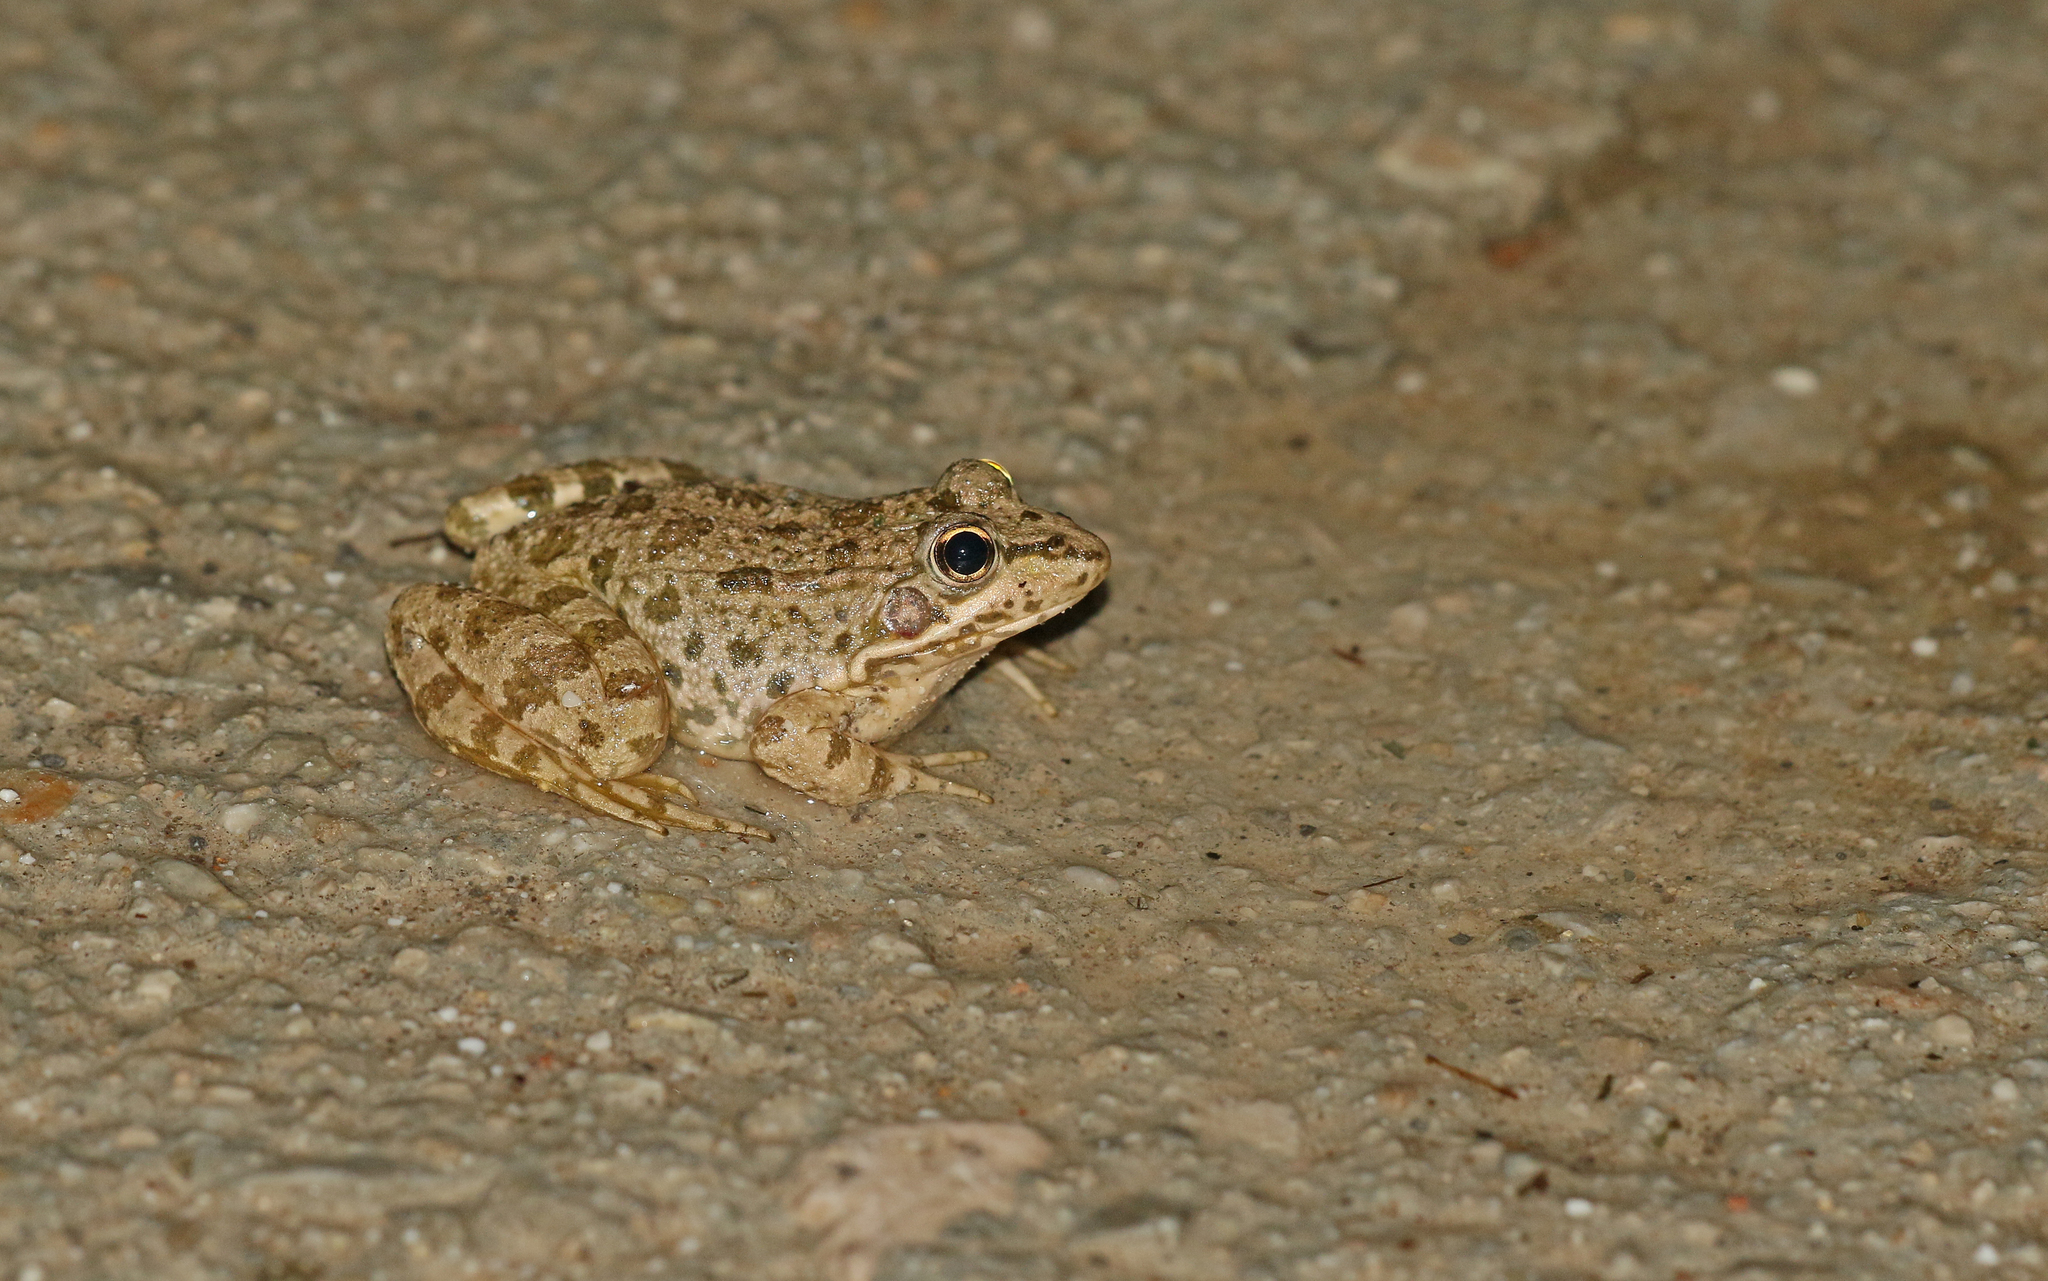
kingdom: Animalia
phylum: Chordata
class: Amphibia
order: Anura
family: Ranidae
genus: Pelophylax
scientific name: Pelophylax perezi
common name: Perez's frog
